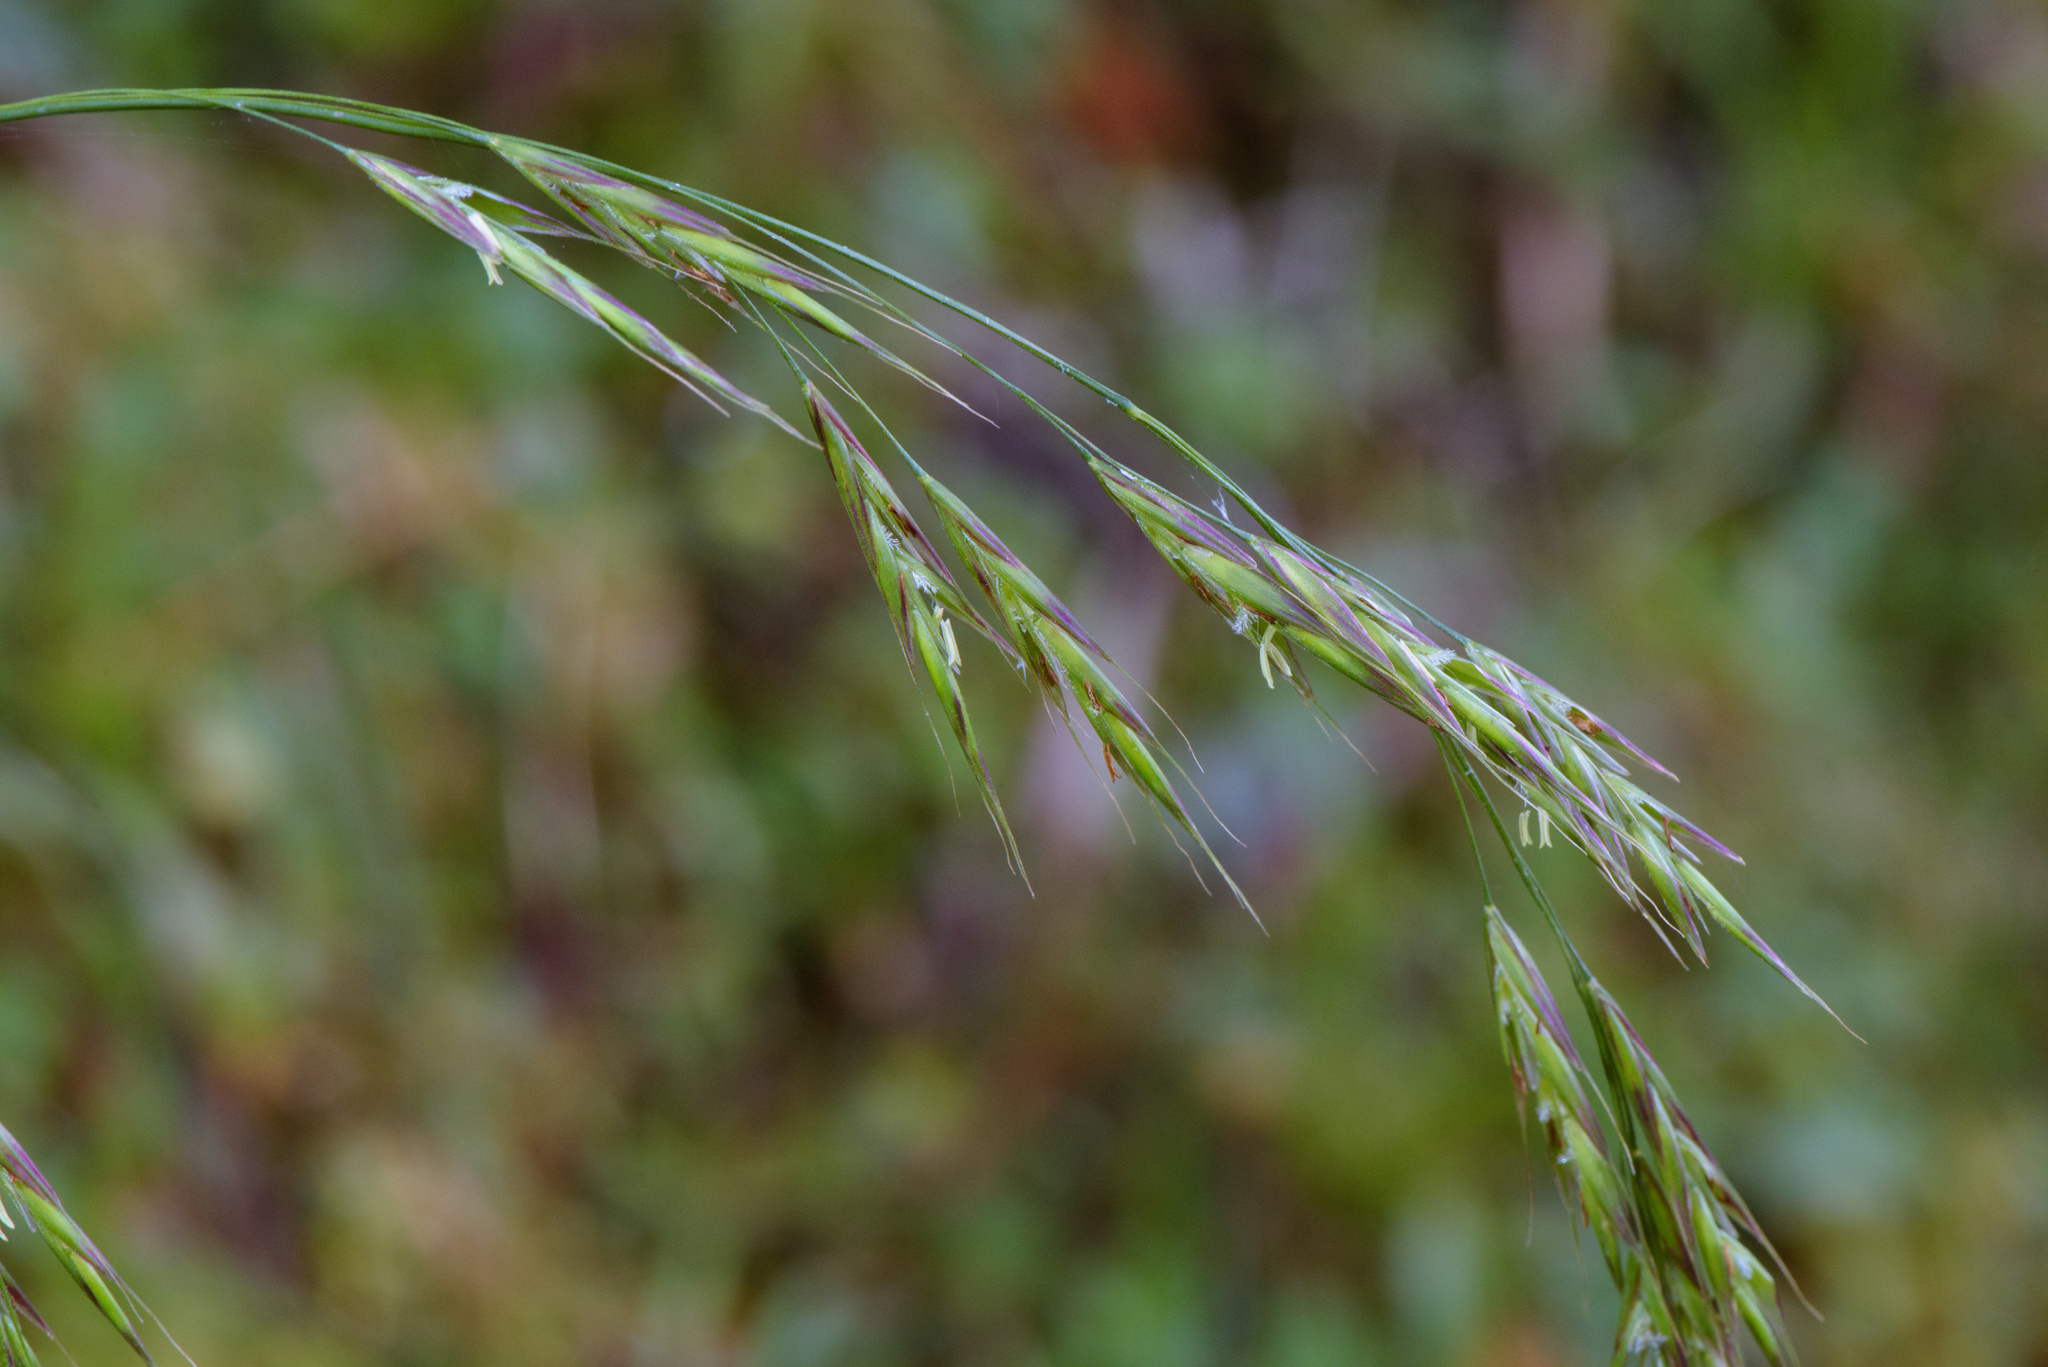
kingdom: Plantae
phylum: Tracheophyta
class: Liliopsida
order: Poales
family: Poaceae
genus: Bromus
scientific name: Bromus morrisonensis
